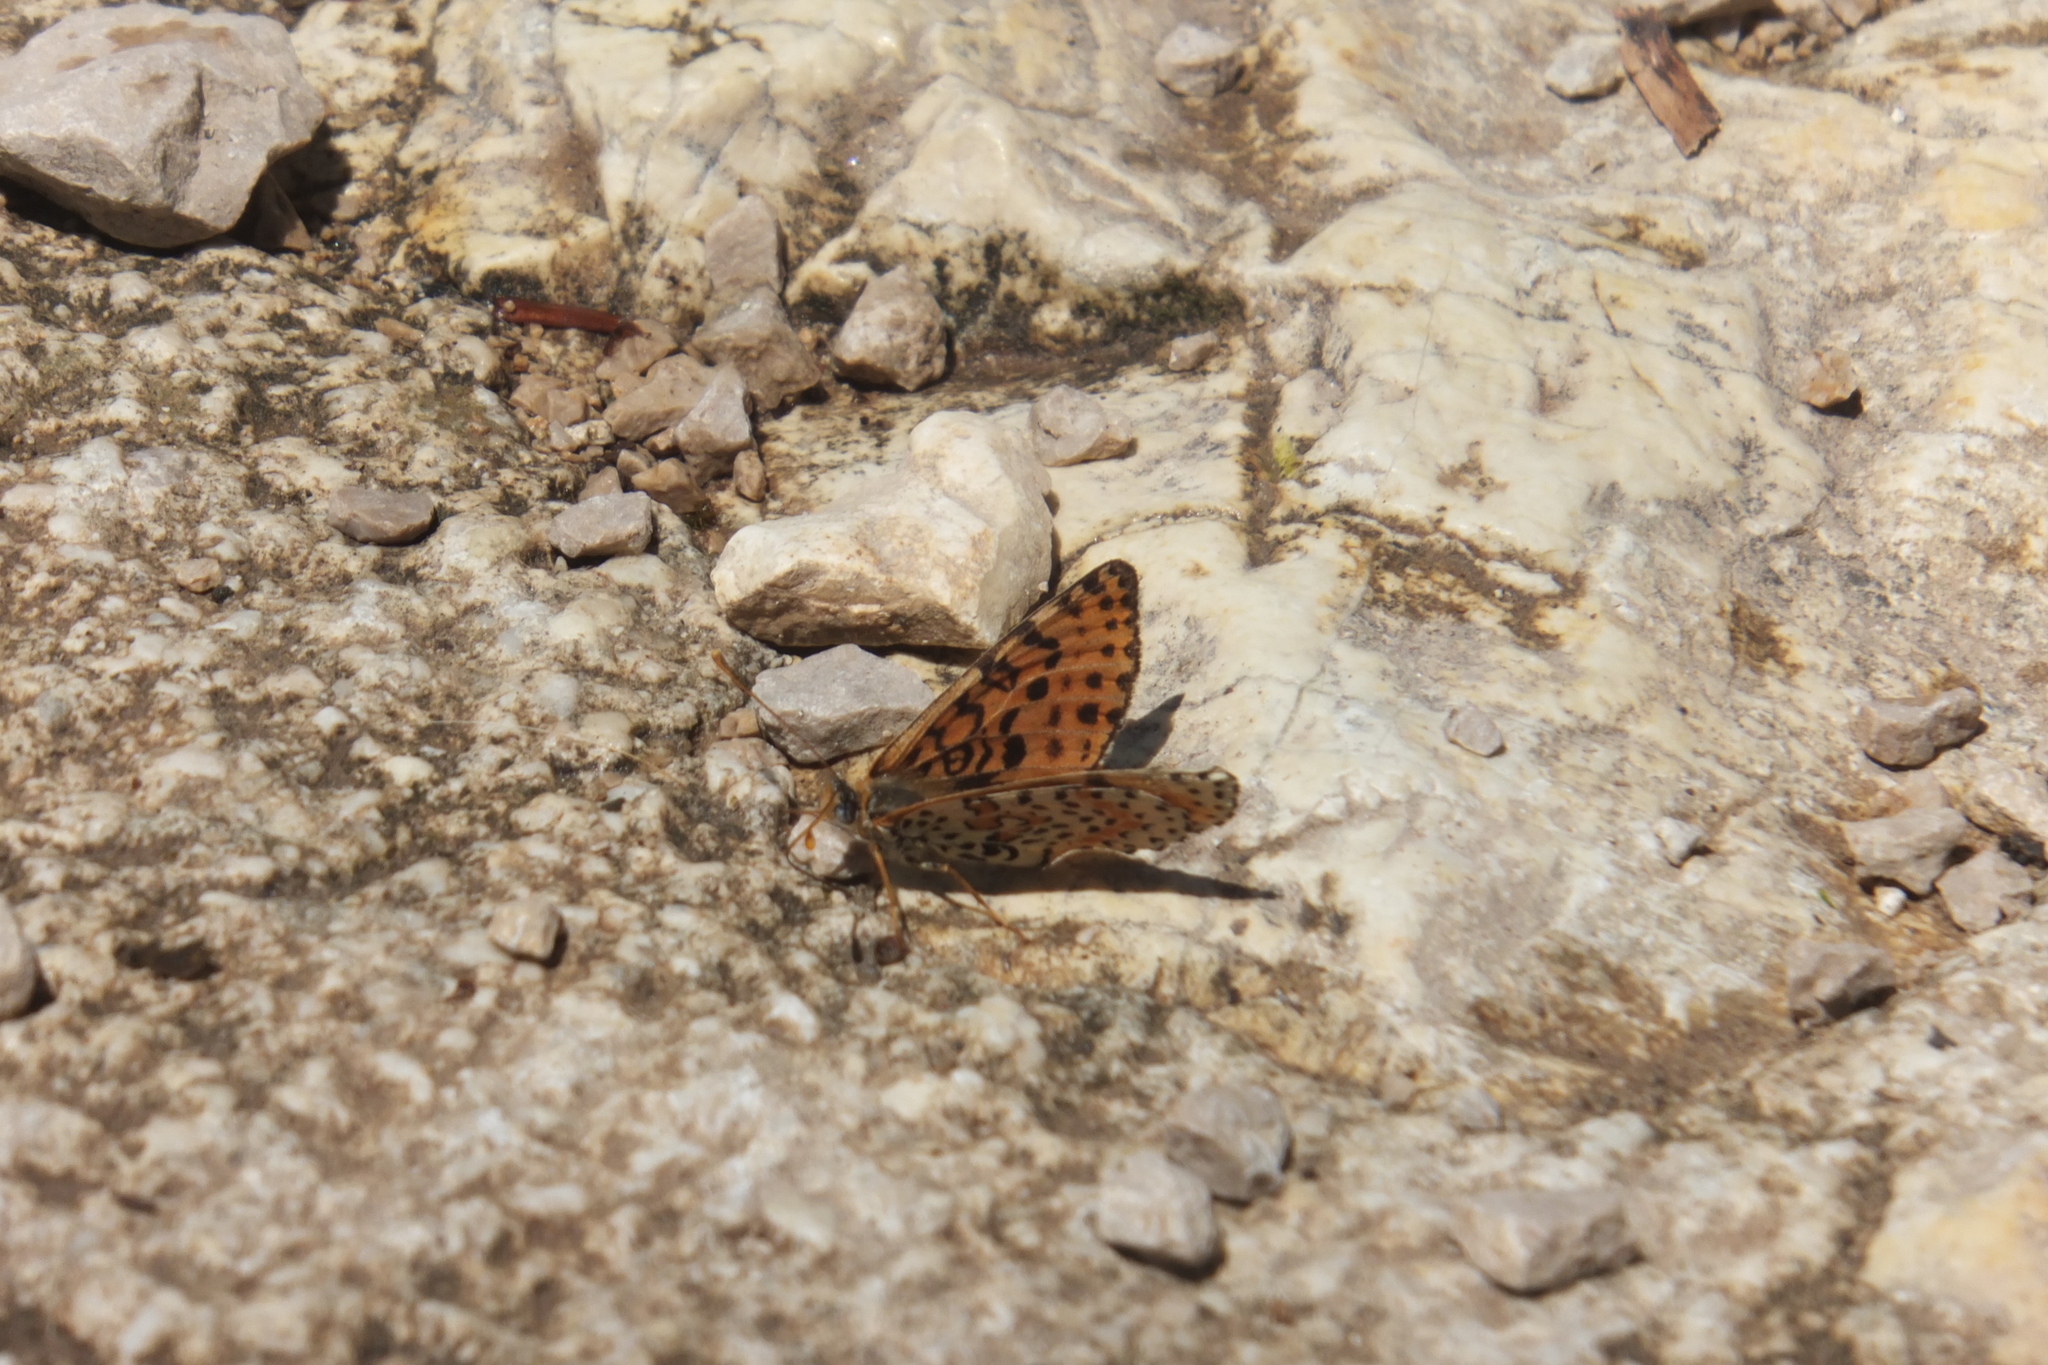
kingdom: Animalia
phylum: Arthropoda
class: Insecta
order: Lepidoptera
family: Nymphalidae
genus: Melitaea
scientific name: Melitaea didyma
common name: Spotted fritillary
